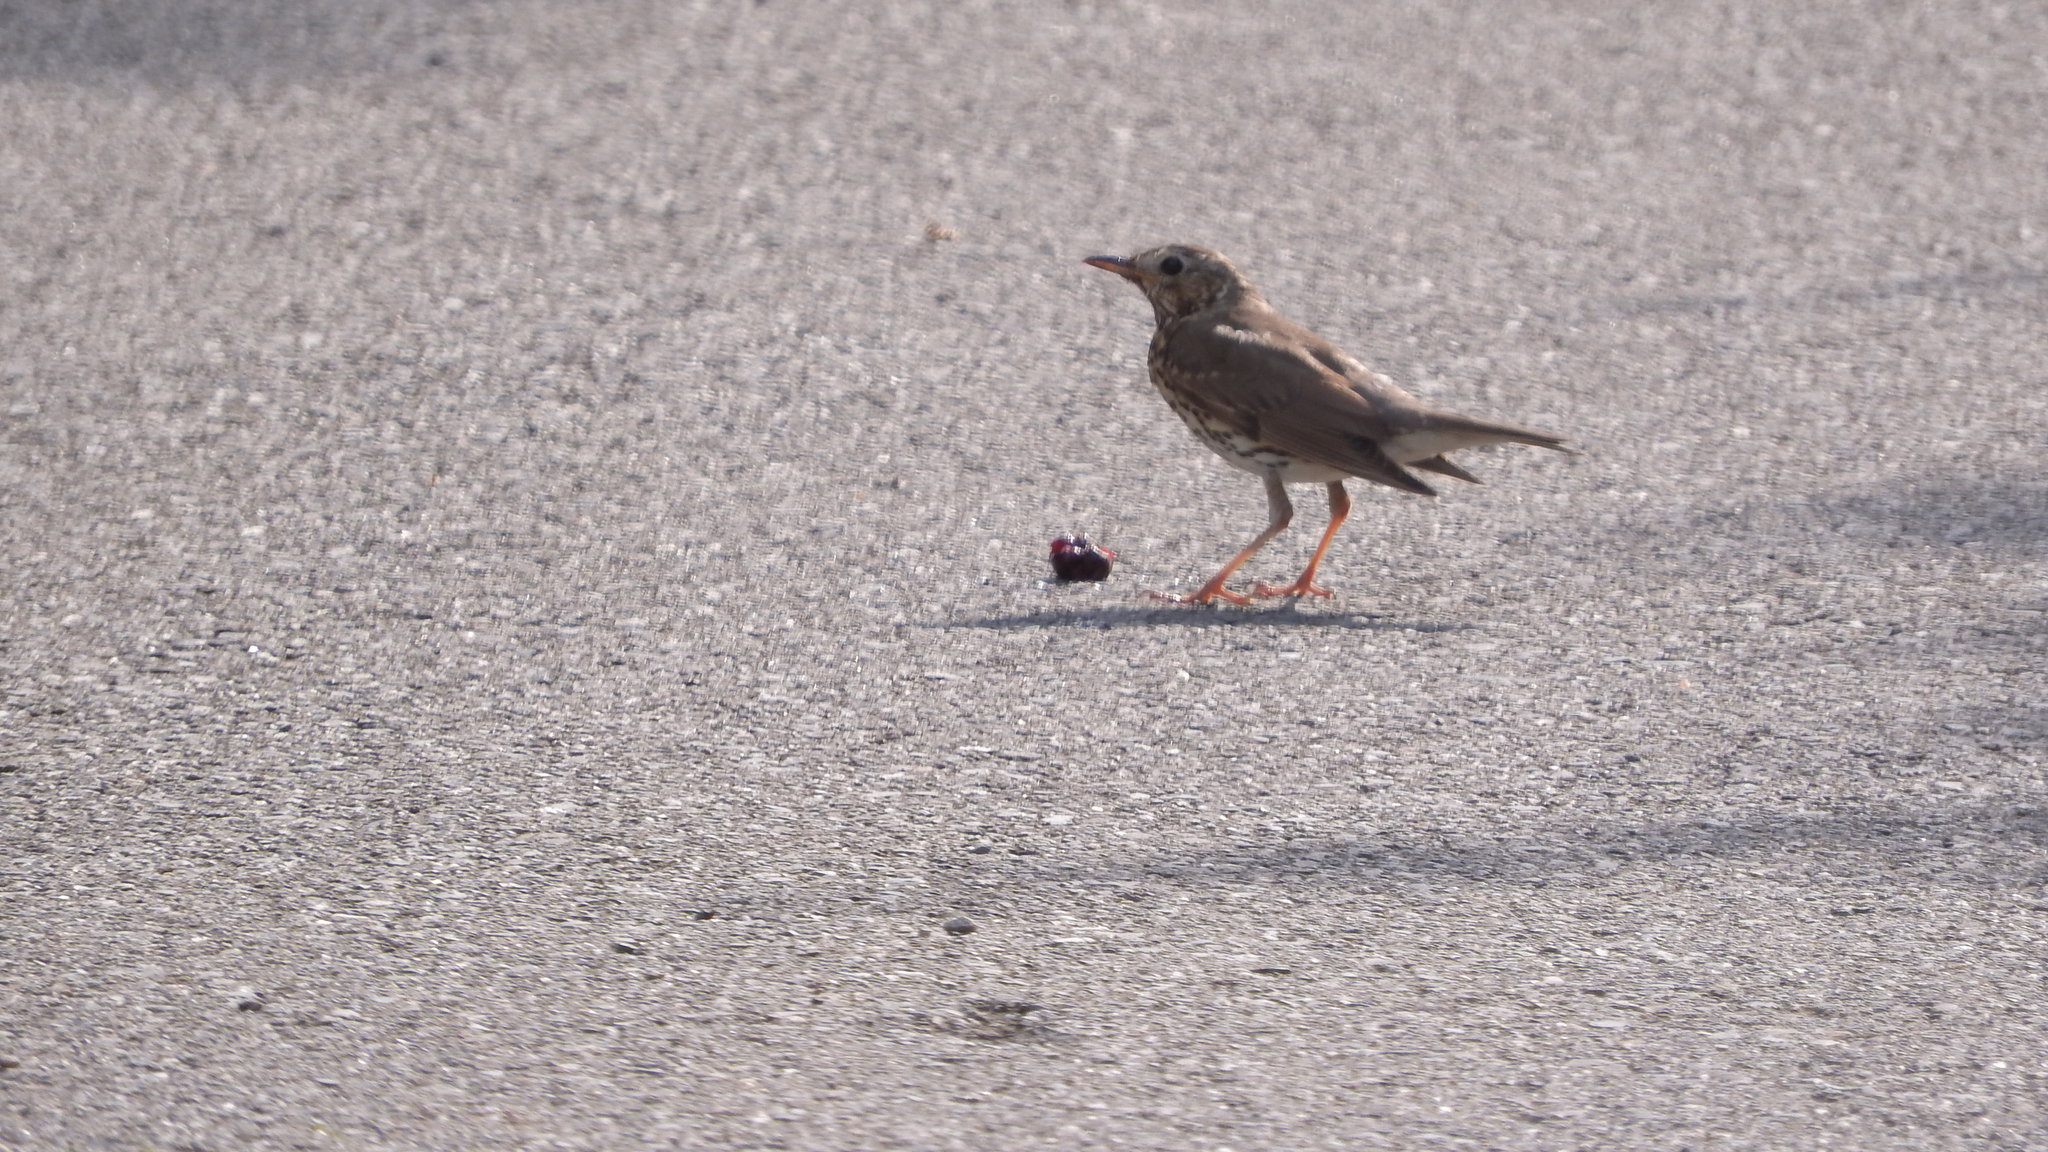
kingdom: Animalia
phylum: Chordata
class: Aves
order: Passeriformes
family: Turdidae
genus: Turdus
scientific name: Turdus philomelos
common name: Song thrush
